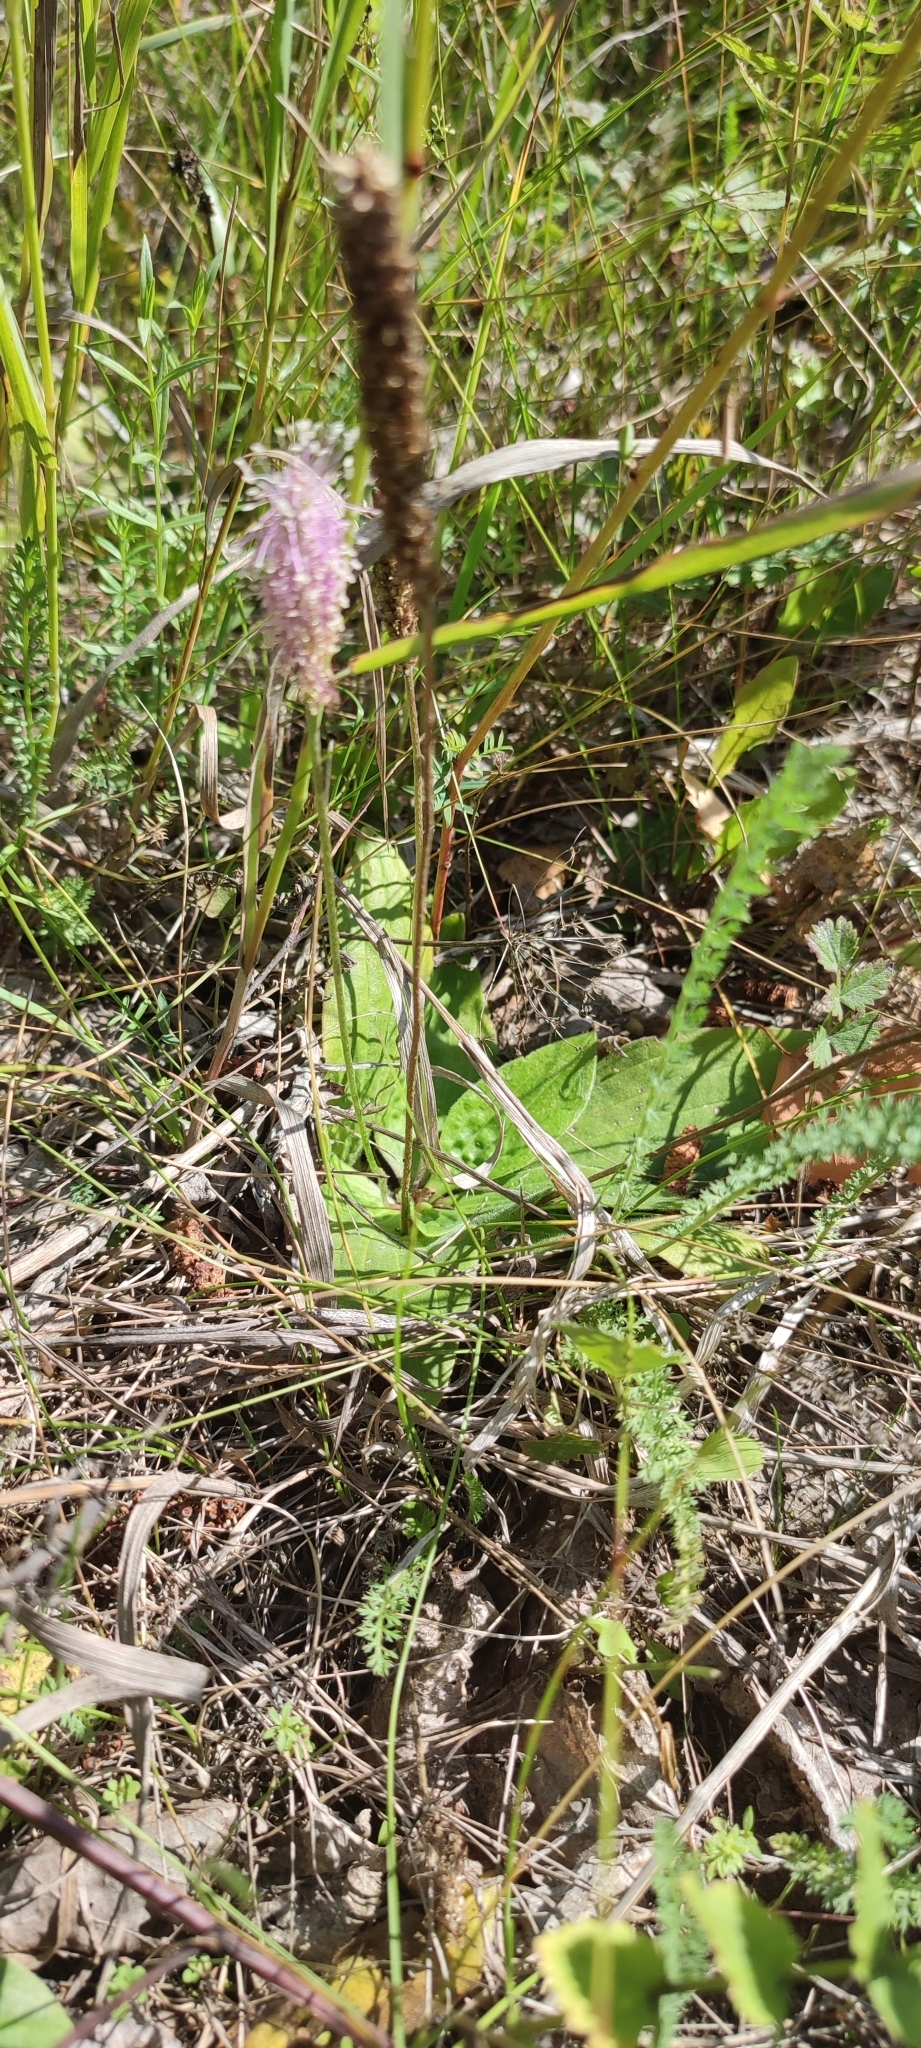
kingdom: Plantae
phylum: Tracheophyta
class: Magnoliopsida
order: Lamiales
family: Plantaginaceae
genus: Plantago
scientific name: Plantago media
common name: Hoary plantain
